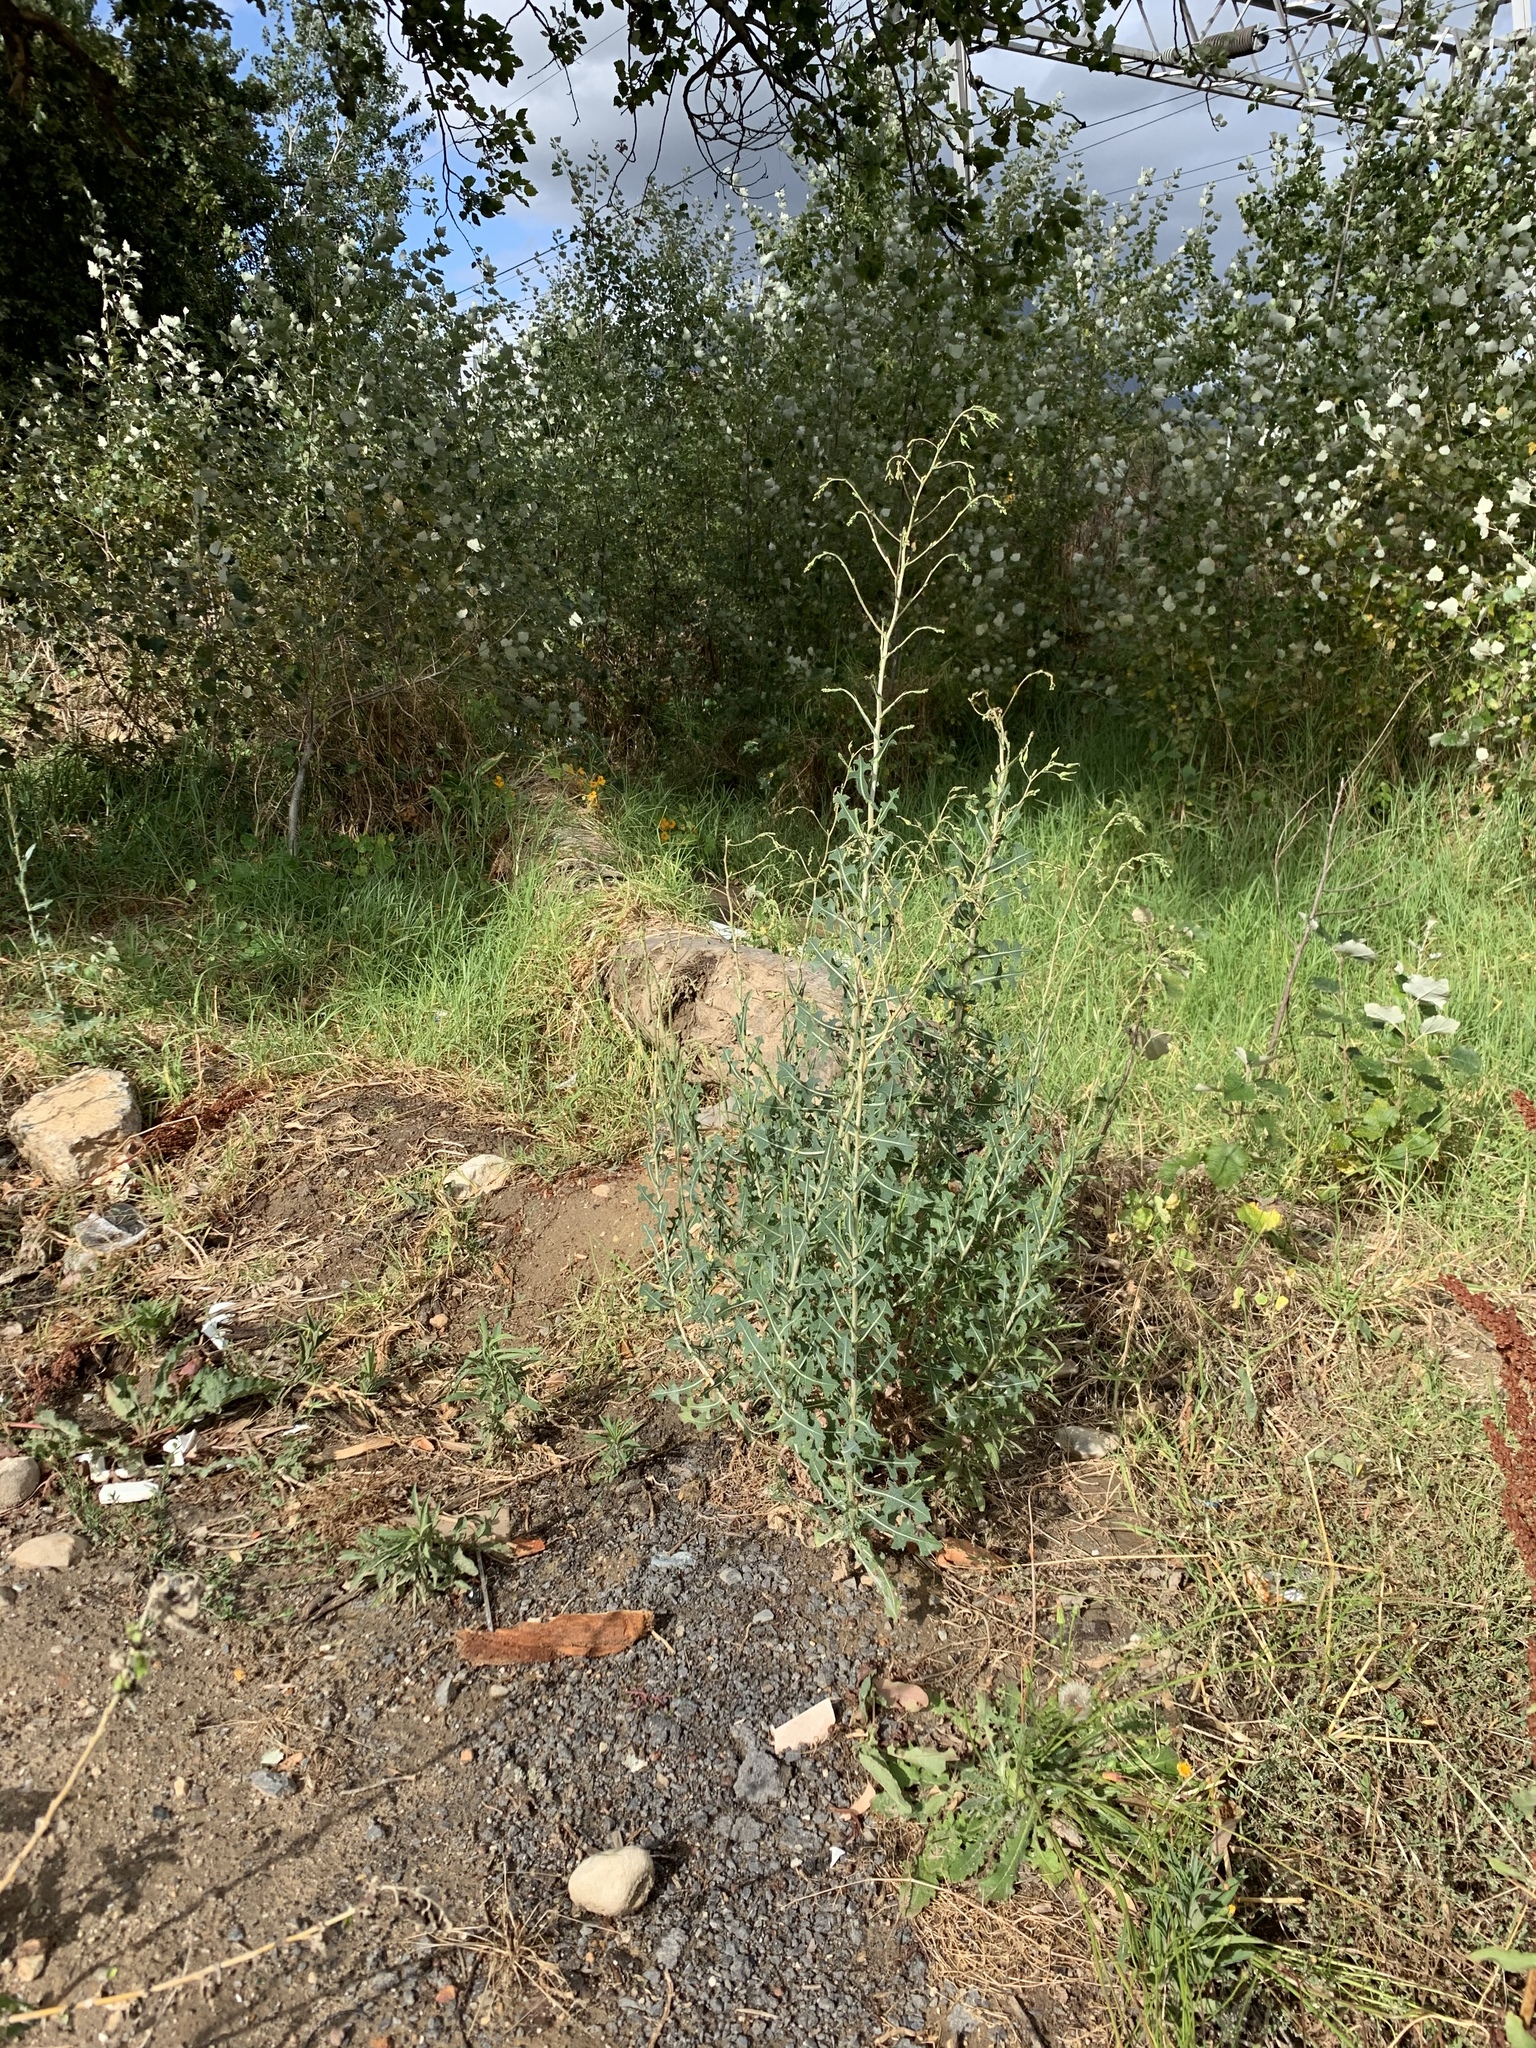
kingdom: Plantae
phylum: Tracheophyta
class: Magnoliopsida
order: Asterales
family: Asteraceae
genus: Lactuca
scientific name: Lactuca serriola
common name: Prickly lettuce
